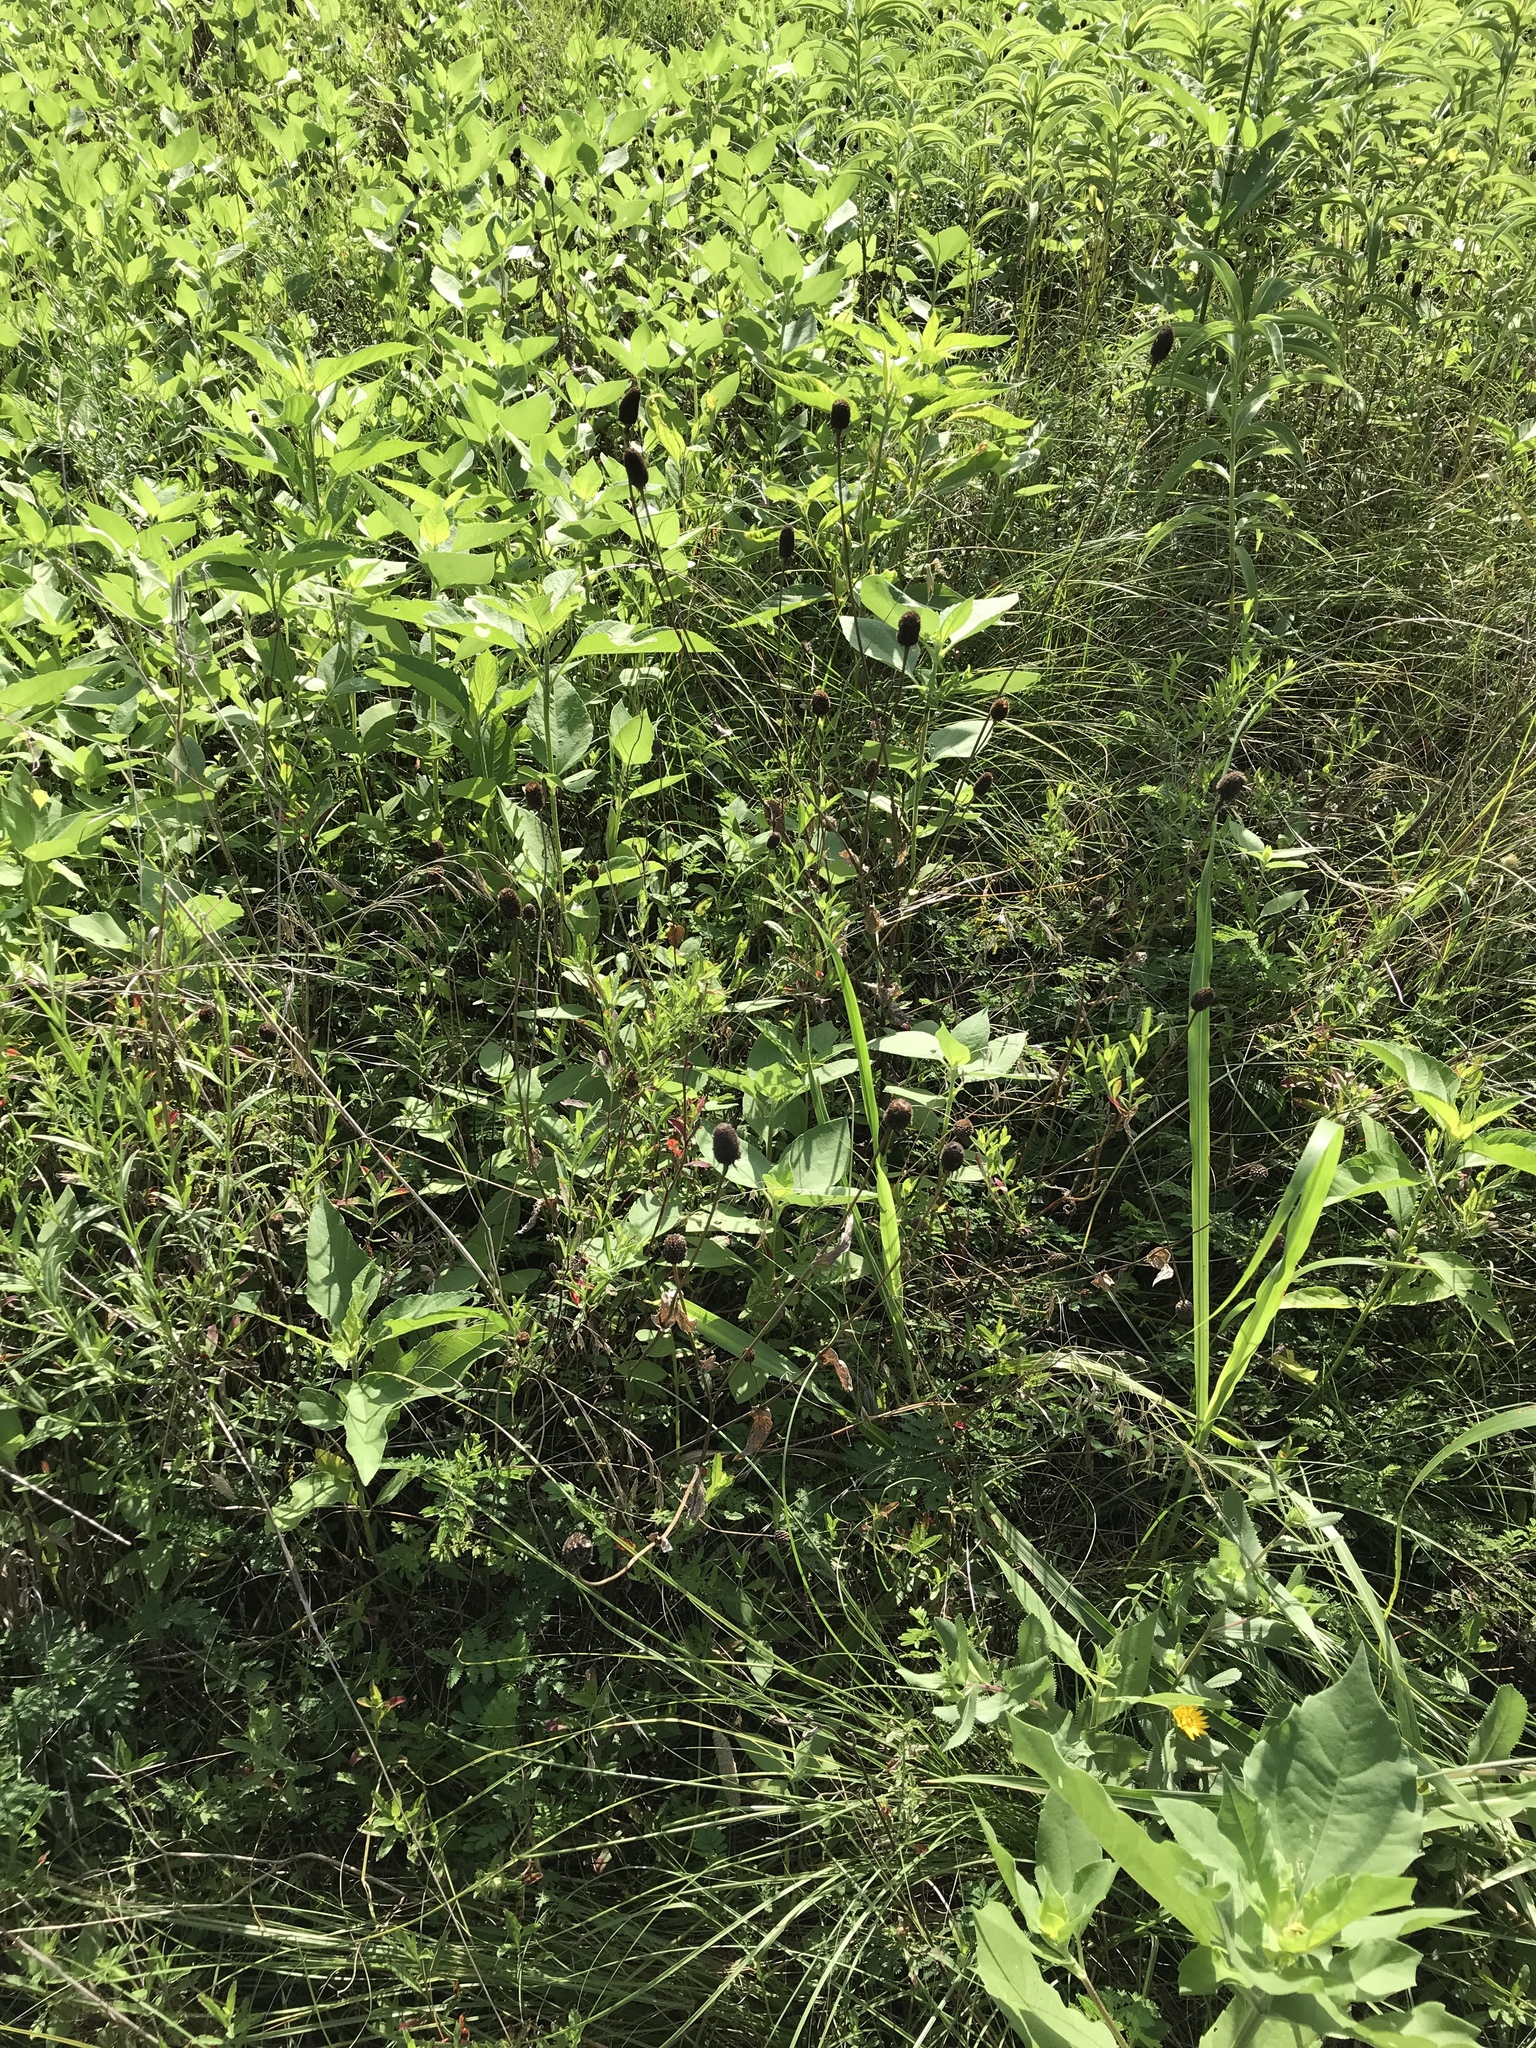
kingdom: Plantae
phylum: Tracheophyta
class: Magnoliopsida
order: Asterales
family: Asteraceae
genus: Rudbeckia
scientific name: Rudbeckia amplexicaulis
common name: Clasping-leaf coneflower
